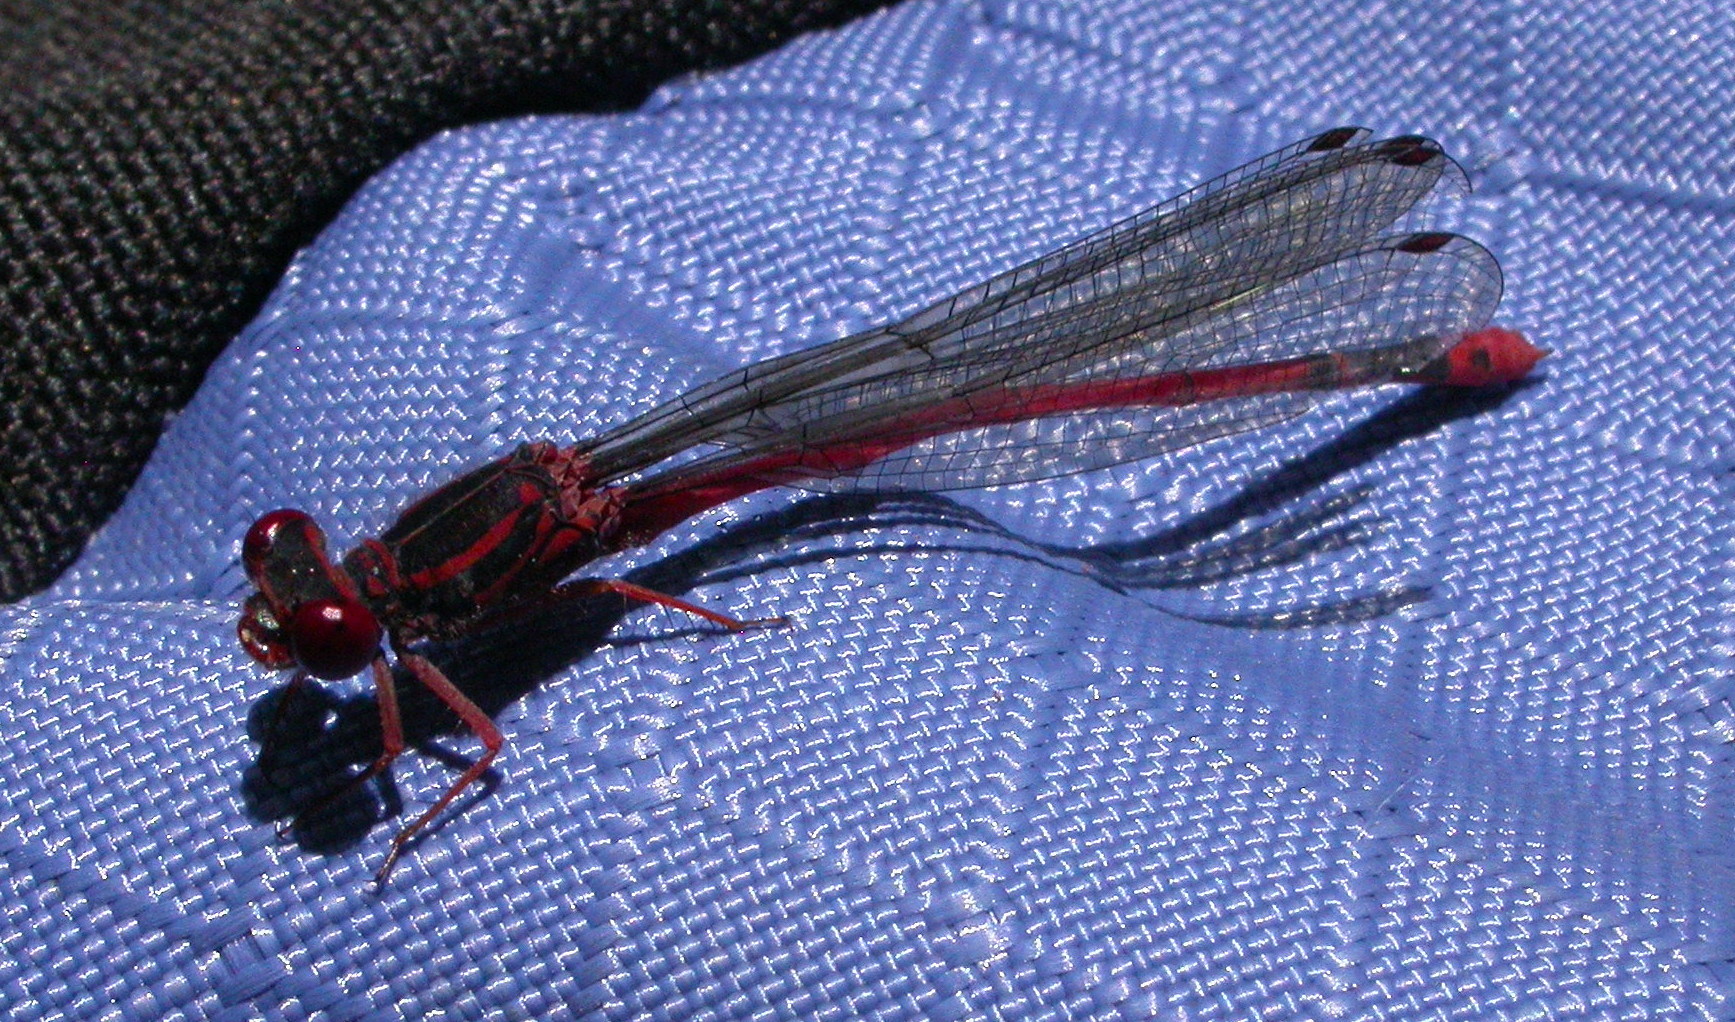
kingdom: Animalia
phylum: Arthropoda
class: Insecta
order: Odonata
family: Coenagrionidae
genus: Megalagrion
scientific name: Megalagrion heterogamias
